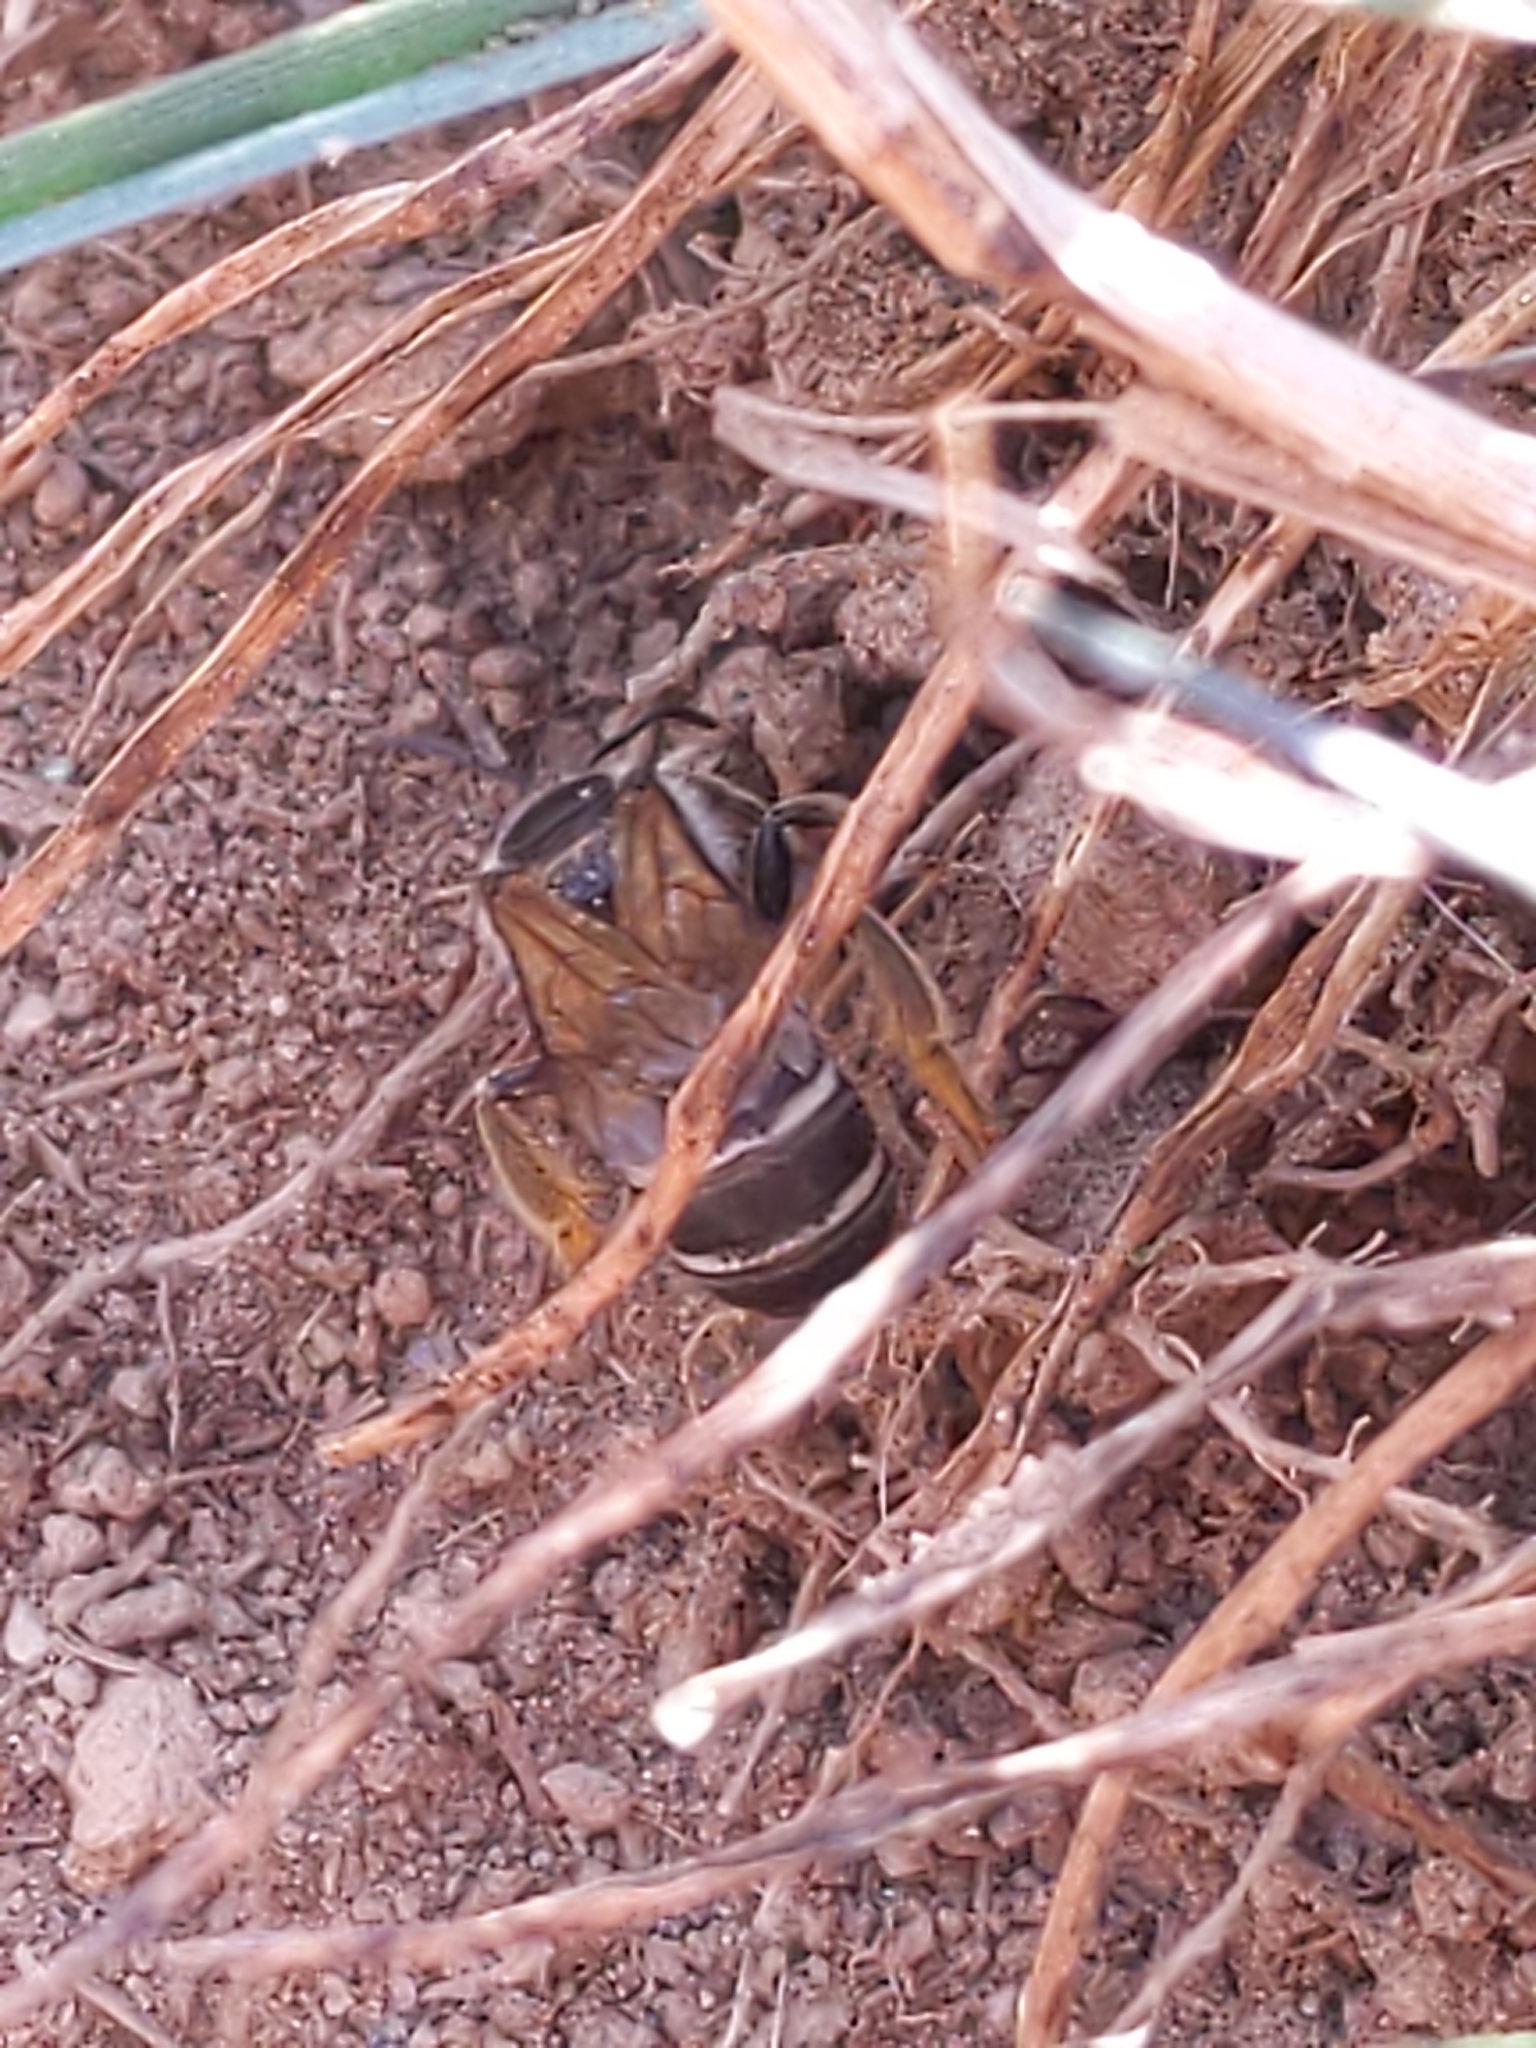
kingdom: Animalia
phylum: Arthropoda
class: Insecta
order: Hymenoptera
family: Halictidae
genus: Halictus
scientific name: Halictus
